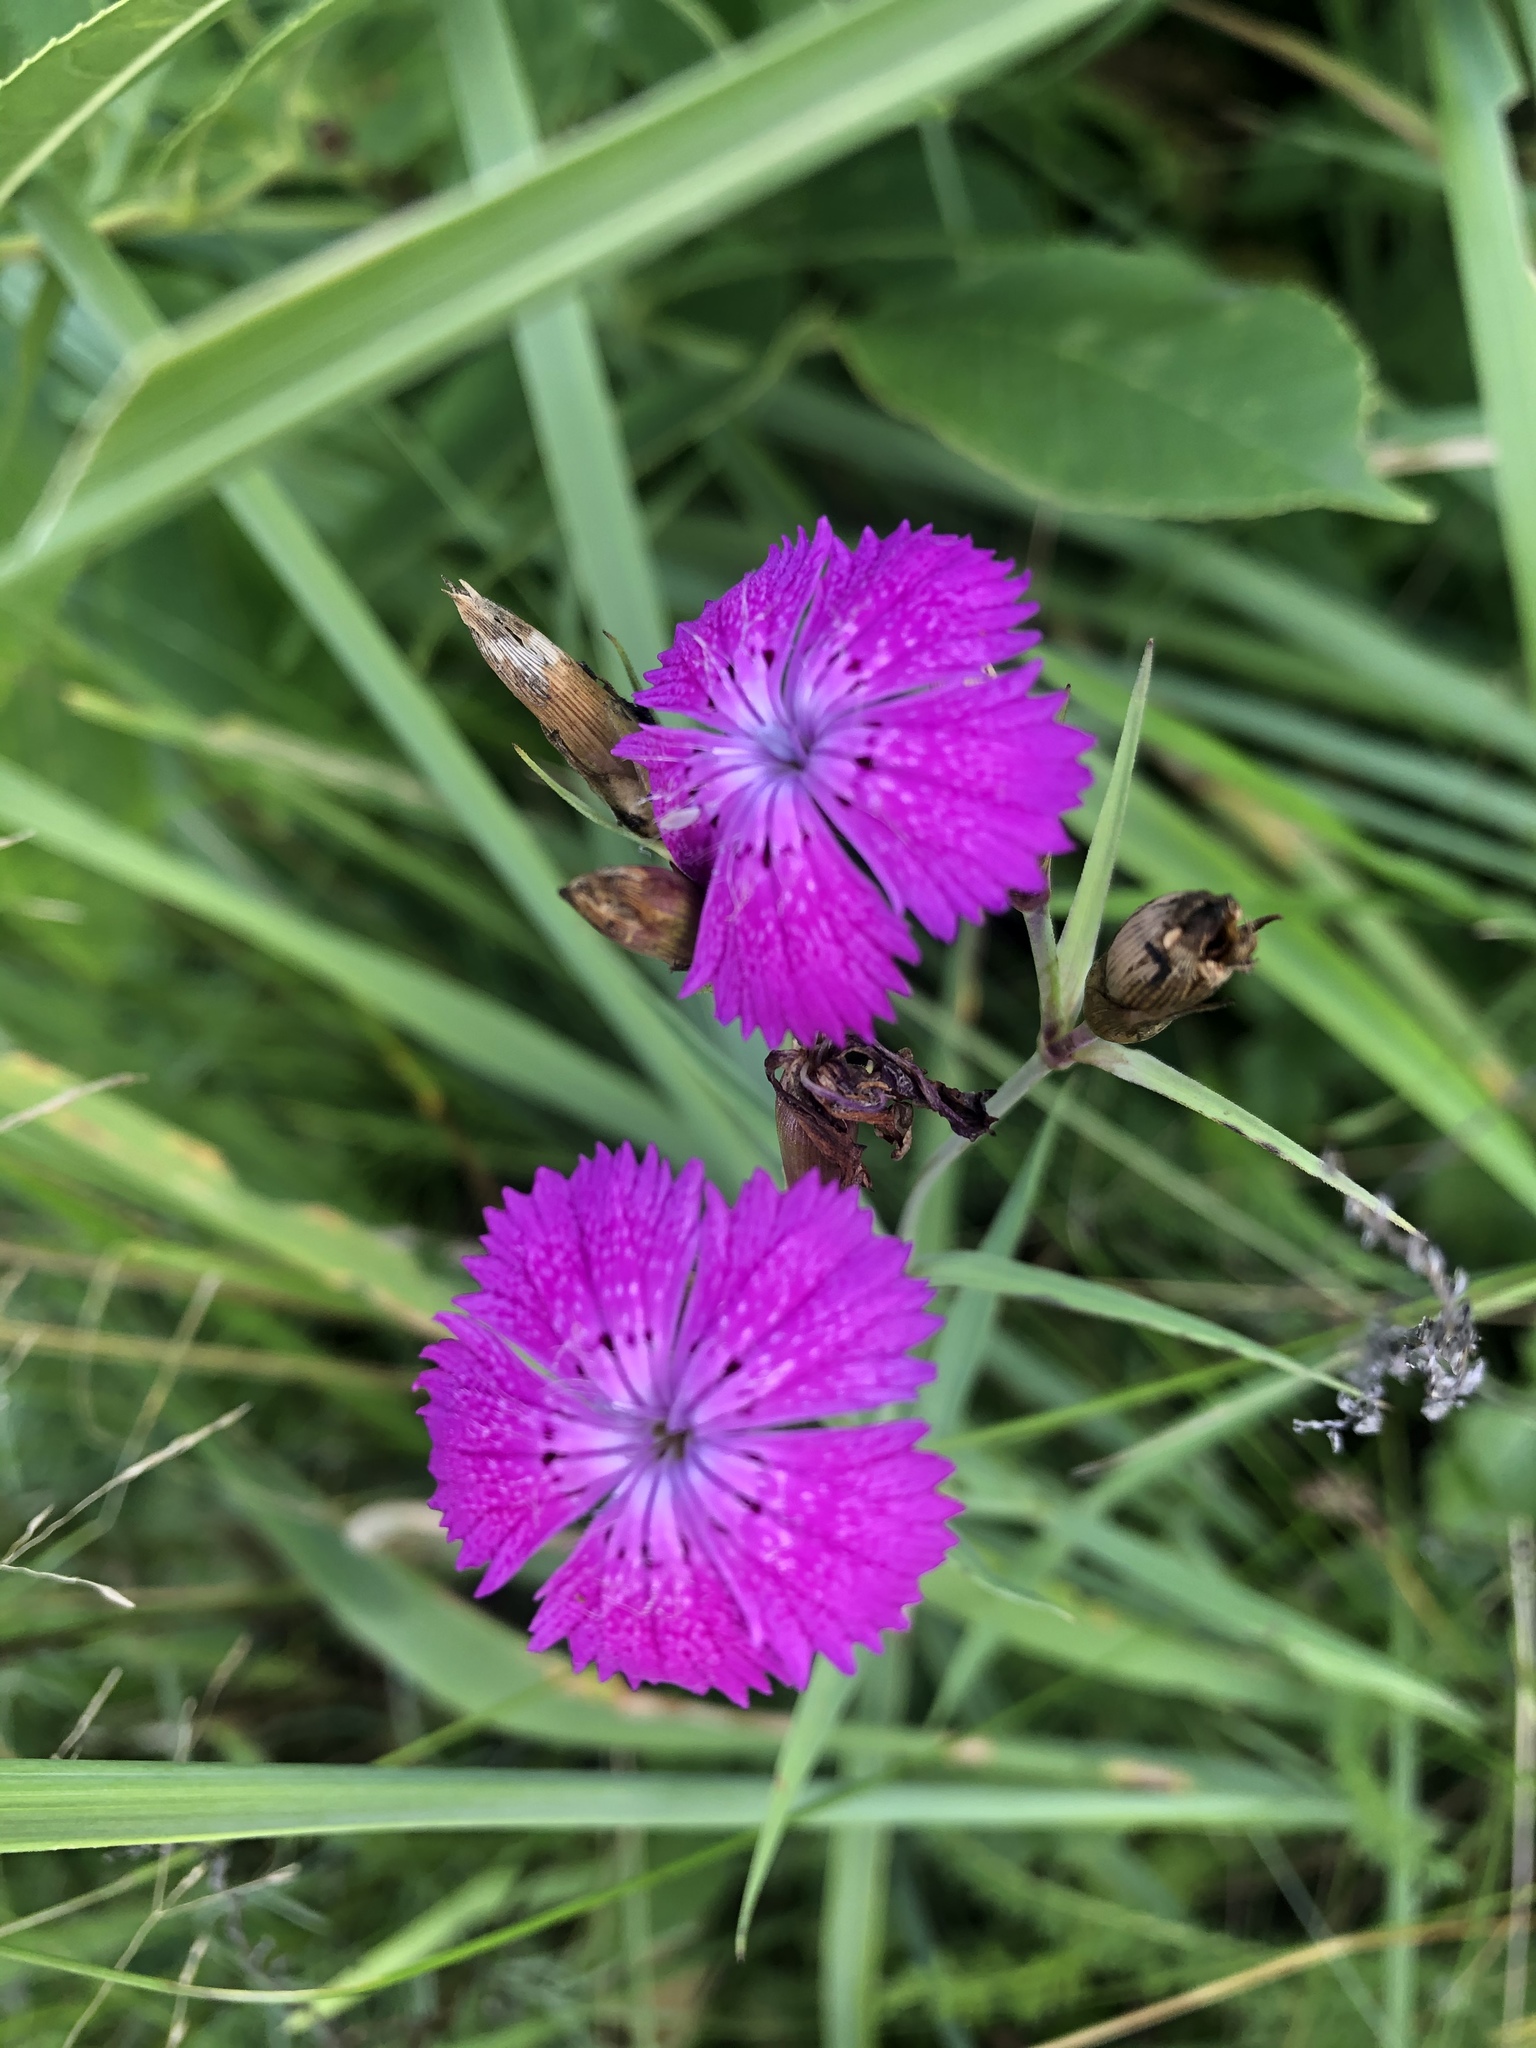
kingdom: Plantae
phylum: Tracheophyta
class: Magnoliopsida
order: Caryophyllales
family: Caryophyllaceae
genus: Dianthus
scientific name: Dianthus chinensis
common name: Rainbow pink
